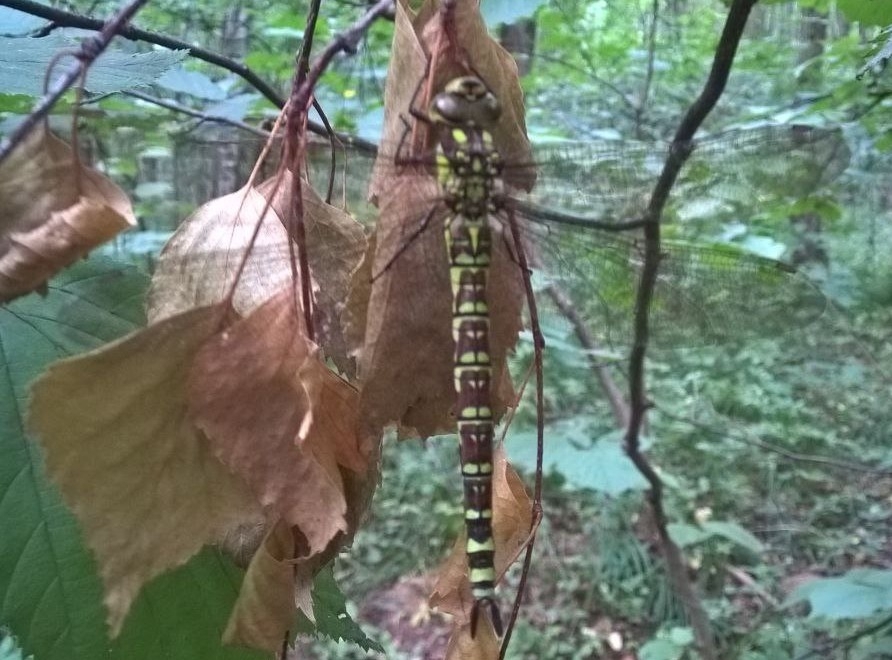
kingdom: Animalia
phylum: Arthropoda
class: Insecta
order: Odonata
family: Aeshnidae
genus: Aeshna
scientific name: Aeshna cyanea
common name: Southern hawker
